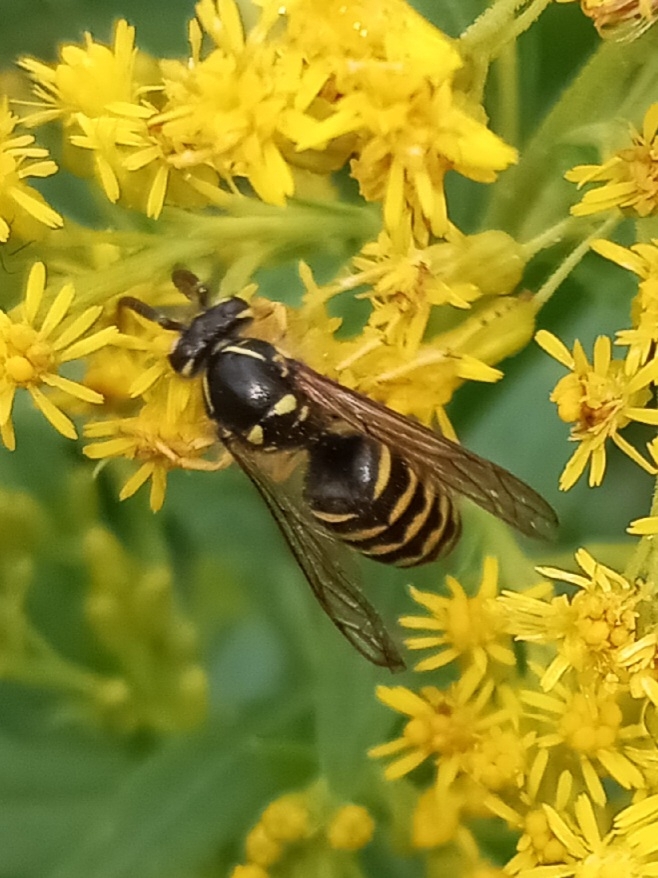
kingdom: Animalia
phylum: Arthropoda
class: Insecta
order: Hymenoptera
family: Vespidae
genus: Dolichovespula
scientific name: Dolichovespula arenaria
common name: Aerial yellowjacket
